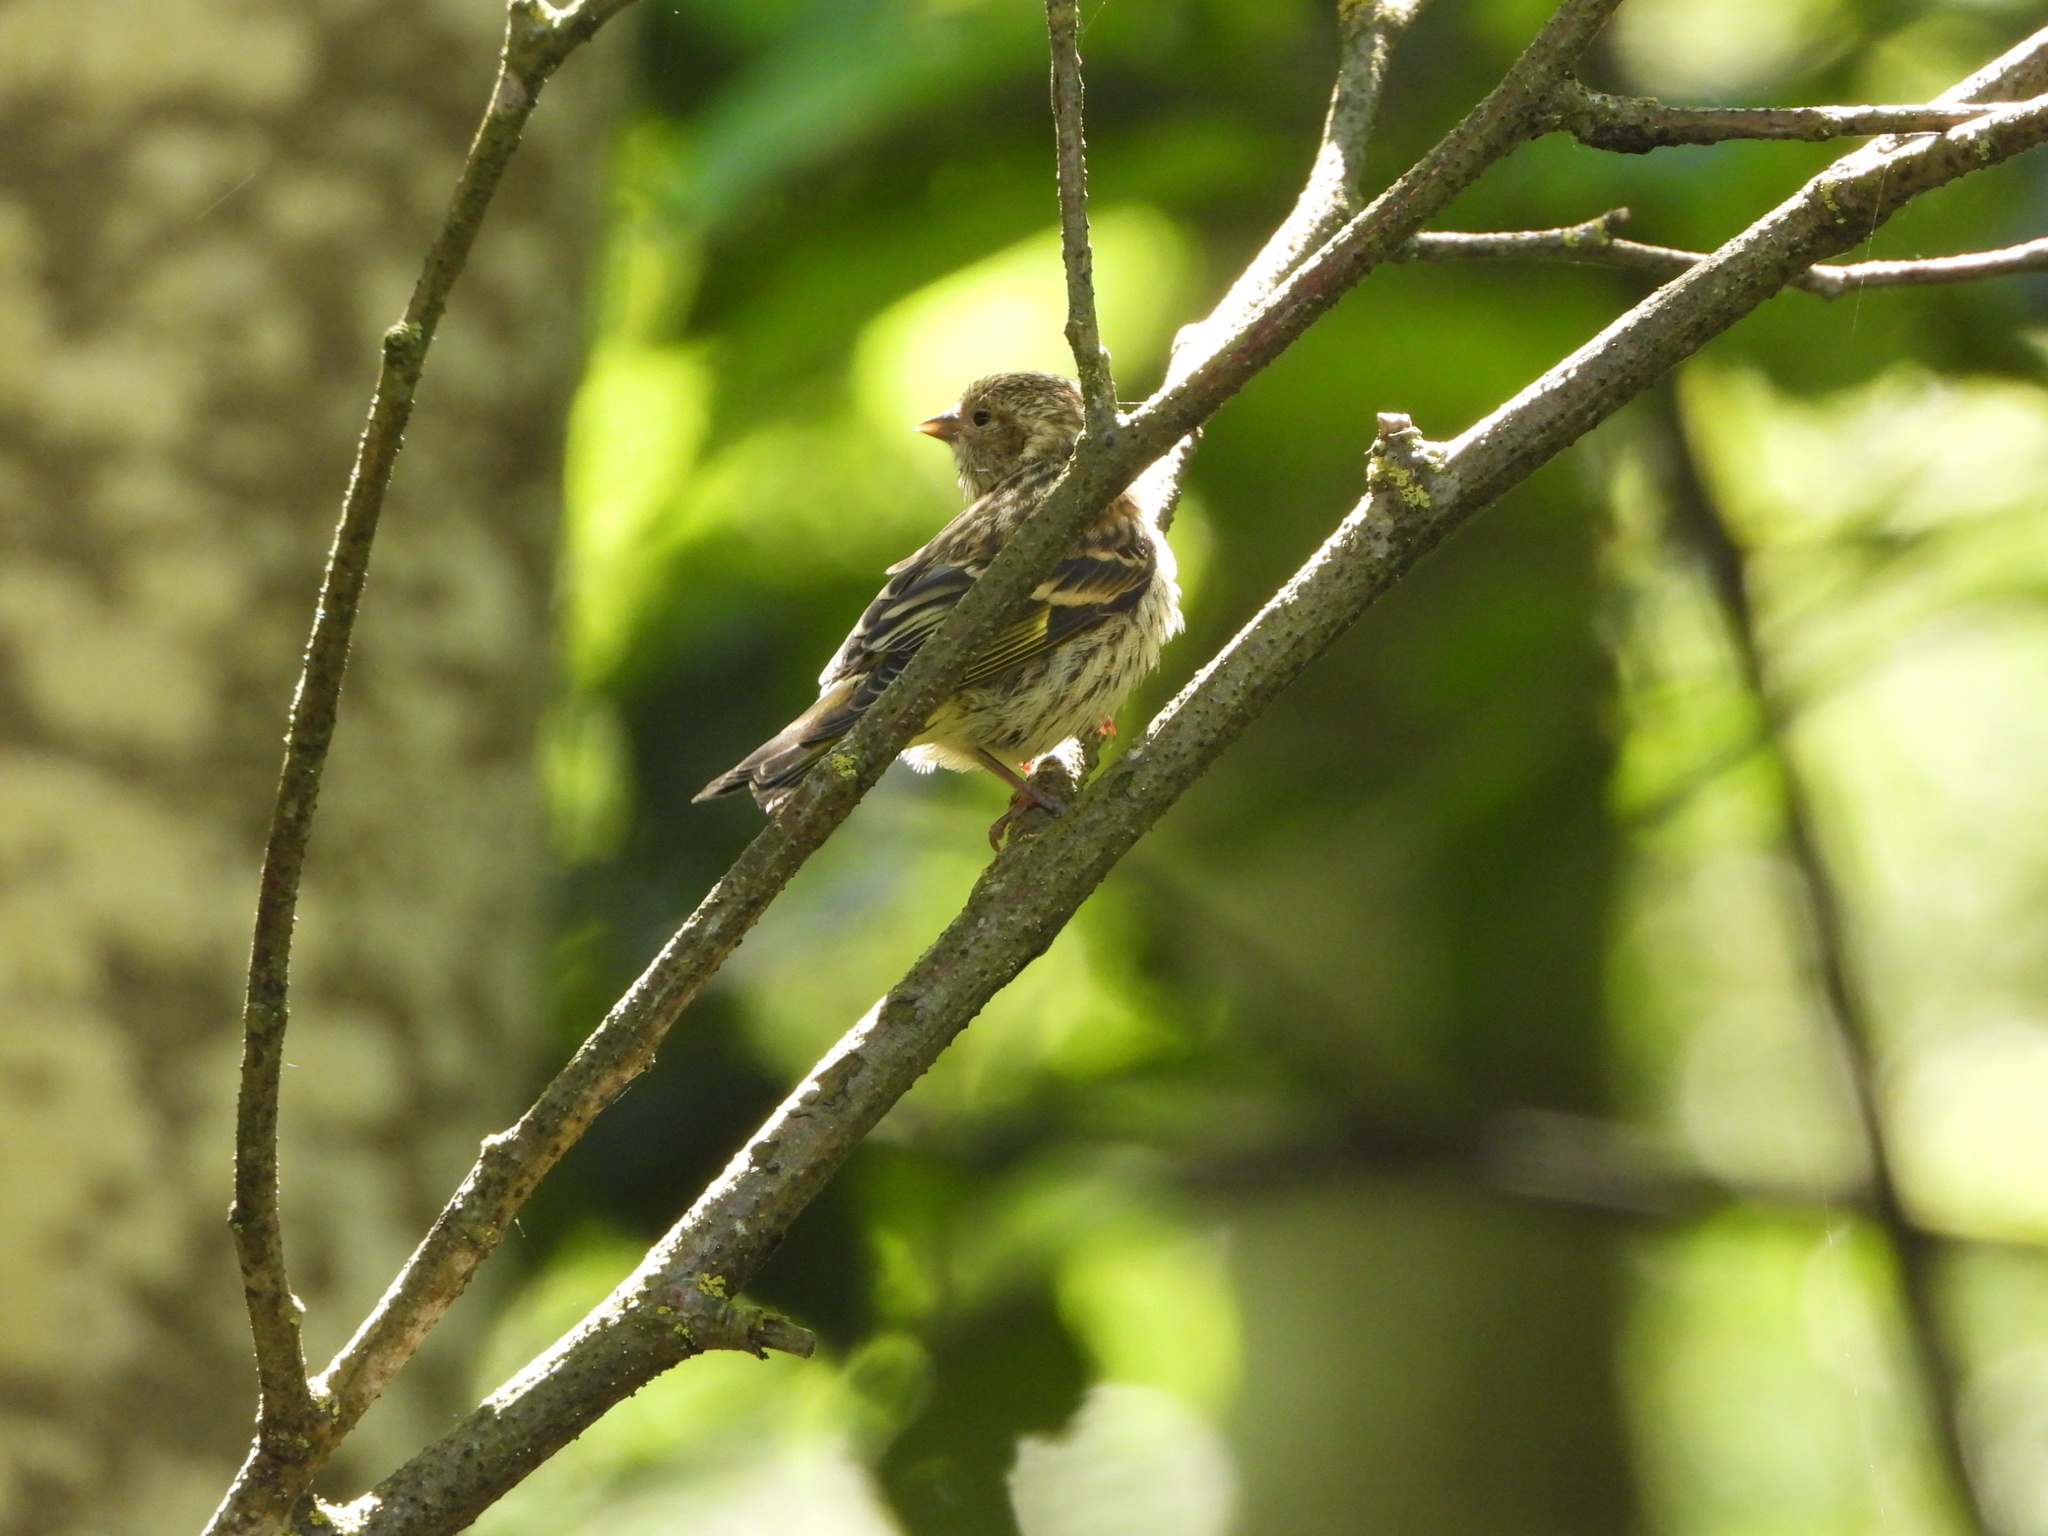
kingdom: Animalia
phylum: Chordata
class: Aves
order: Passeriformes
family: Fringillidae
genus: Spinus
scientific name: Spinus pinus
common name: Pine siskin
